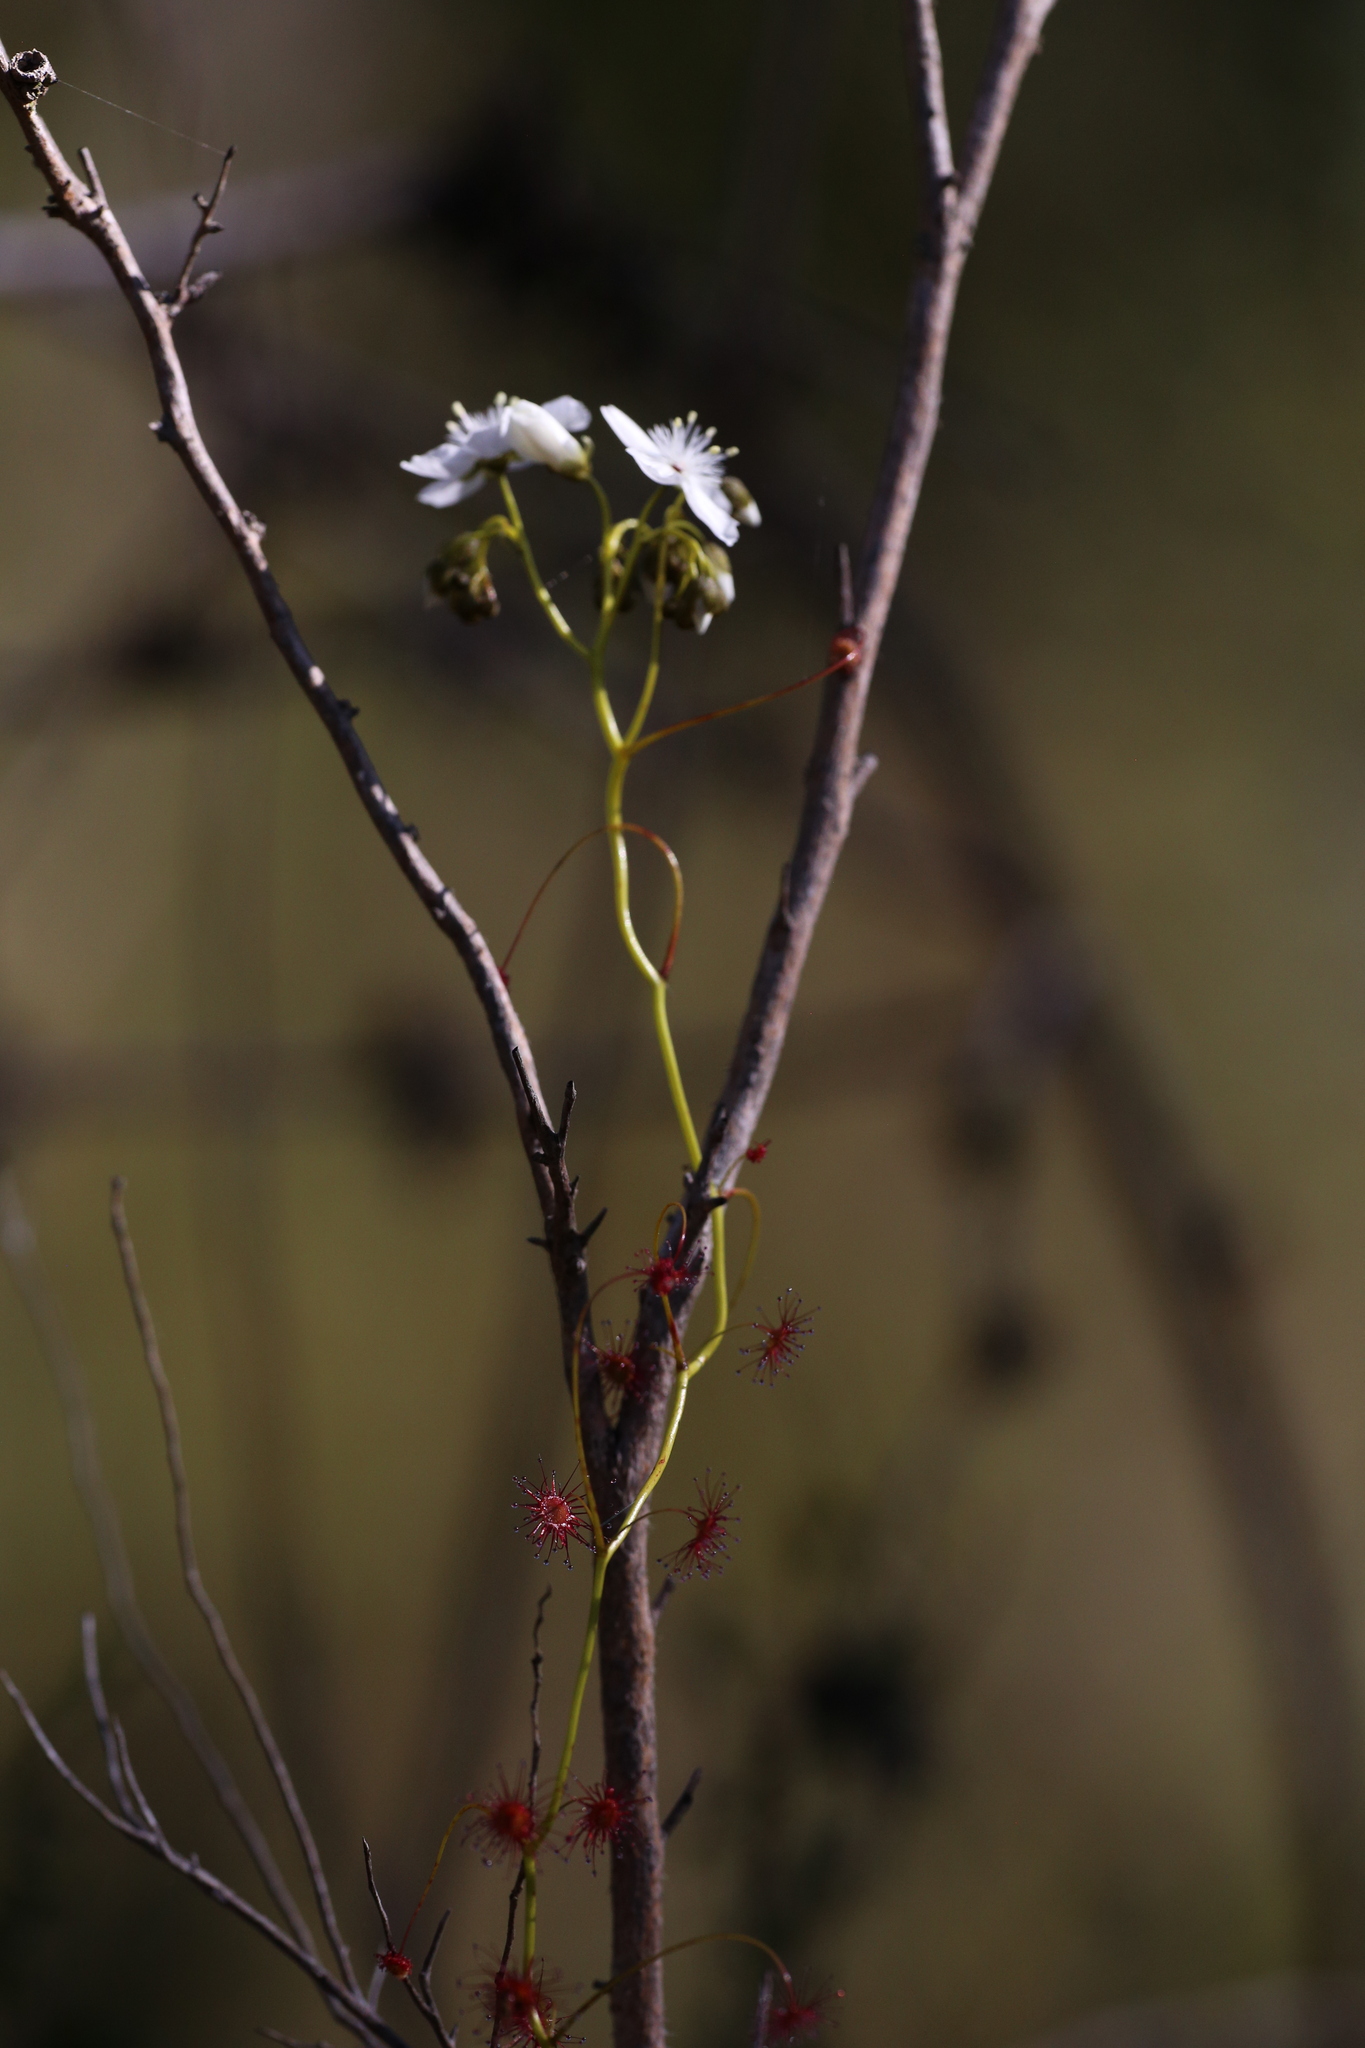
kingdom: Plantae
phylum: Tracheophyta
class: Magnoliopsida
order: Caryophyllales
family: Droseraceae
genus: Drosera
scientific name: Drosera pallida
